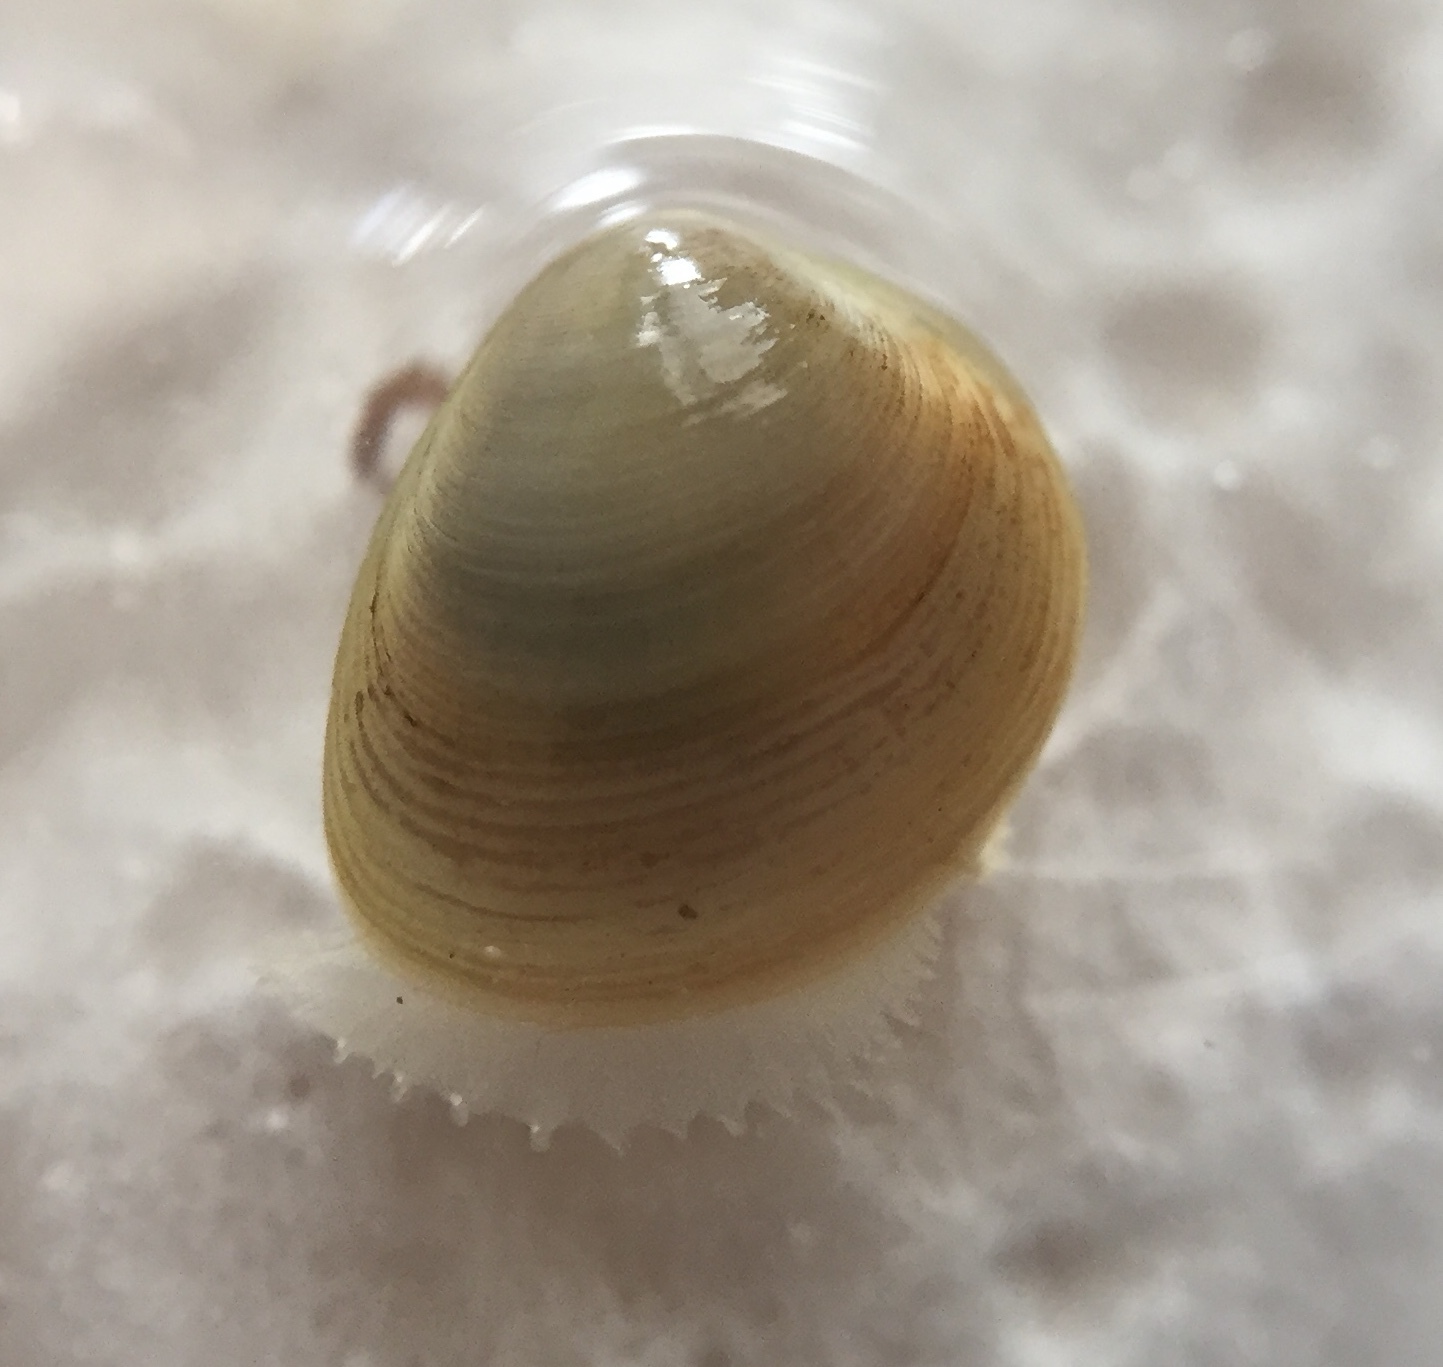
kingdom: Animalia
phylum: Mollusca
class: Bivalvia
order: Nuculida
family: Nuculidae
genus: Linucula
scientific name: Linucula hartvigiana
